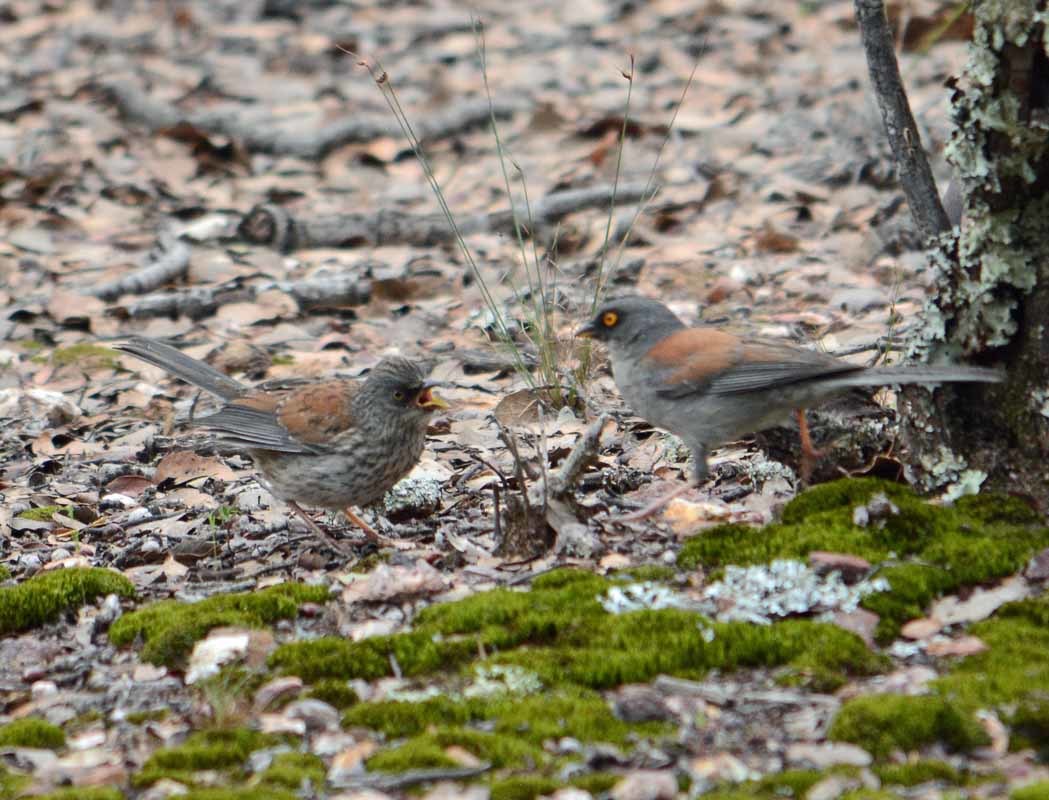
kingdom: Animalia
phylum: Chordata
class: Aves
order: Passeriformes
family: Passerellidae
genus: Junco
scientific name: Junco phaeonotus
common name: Yellow-eyed junco
